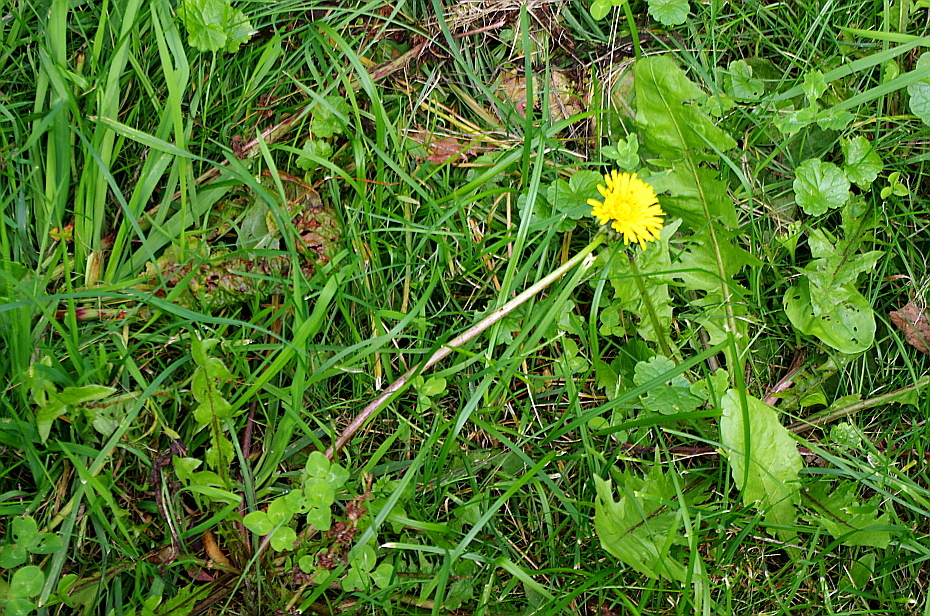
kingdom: Plantae
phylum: Tracheophyta
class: Magnoliopsida
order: Asterales
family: Asteraceae
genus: Taraxacum
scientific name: Taraxacum officinale
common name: Common dandelion
